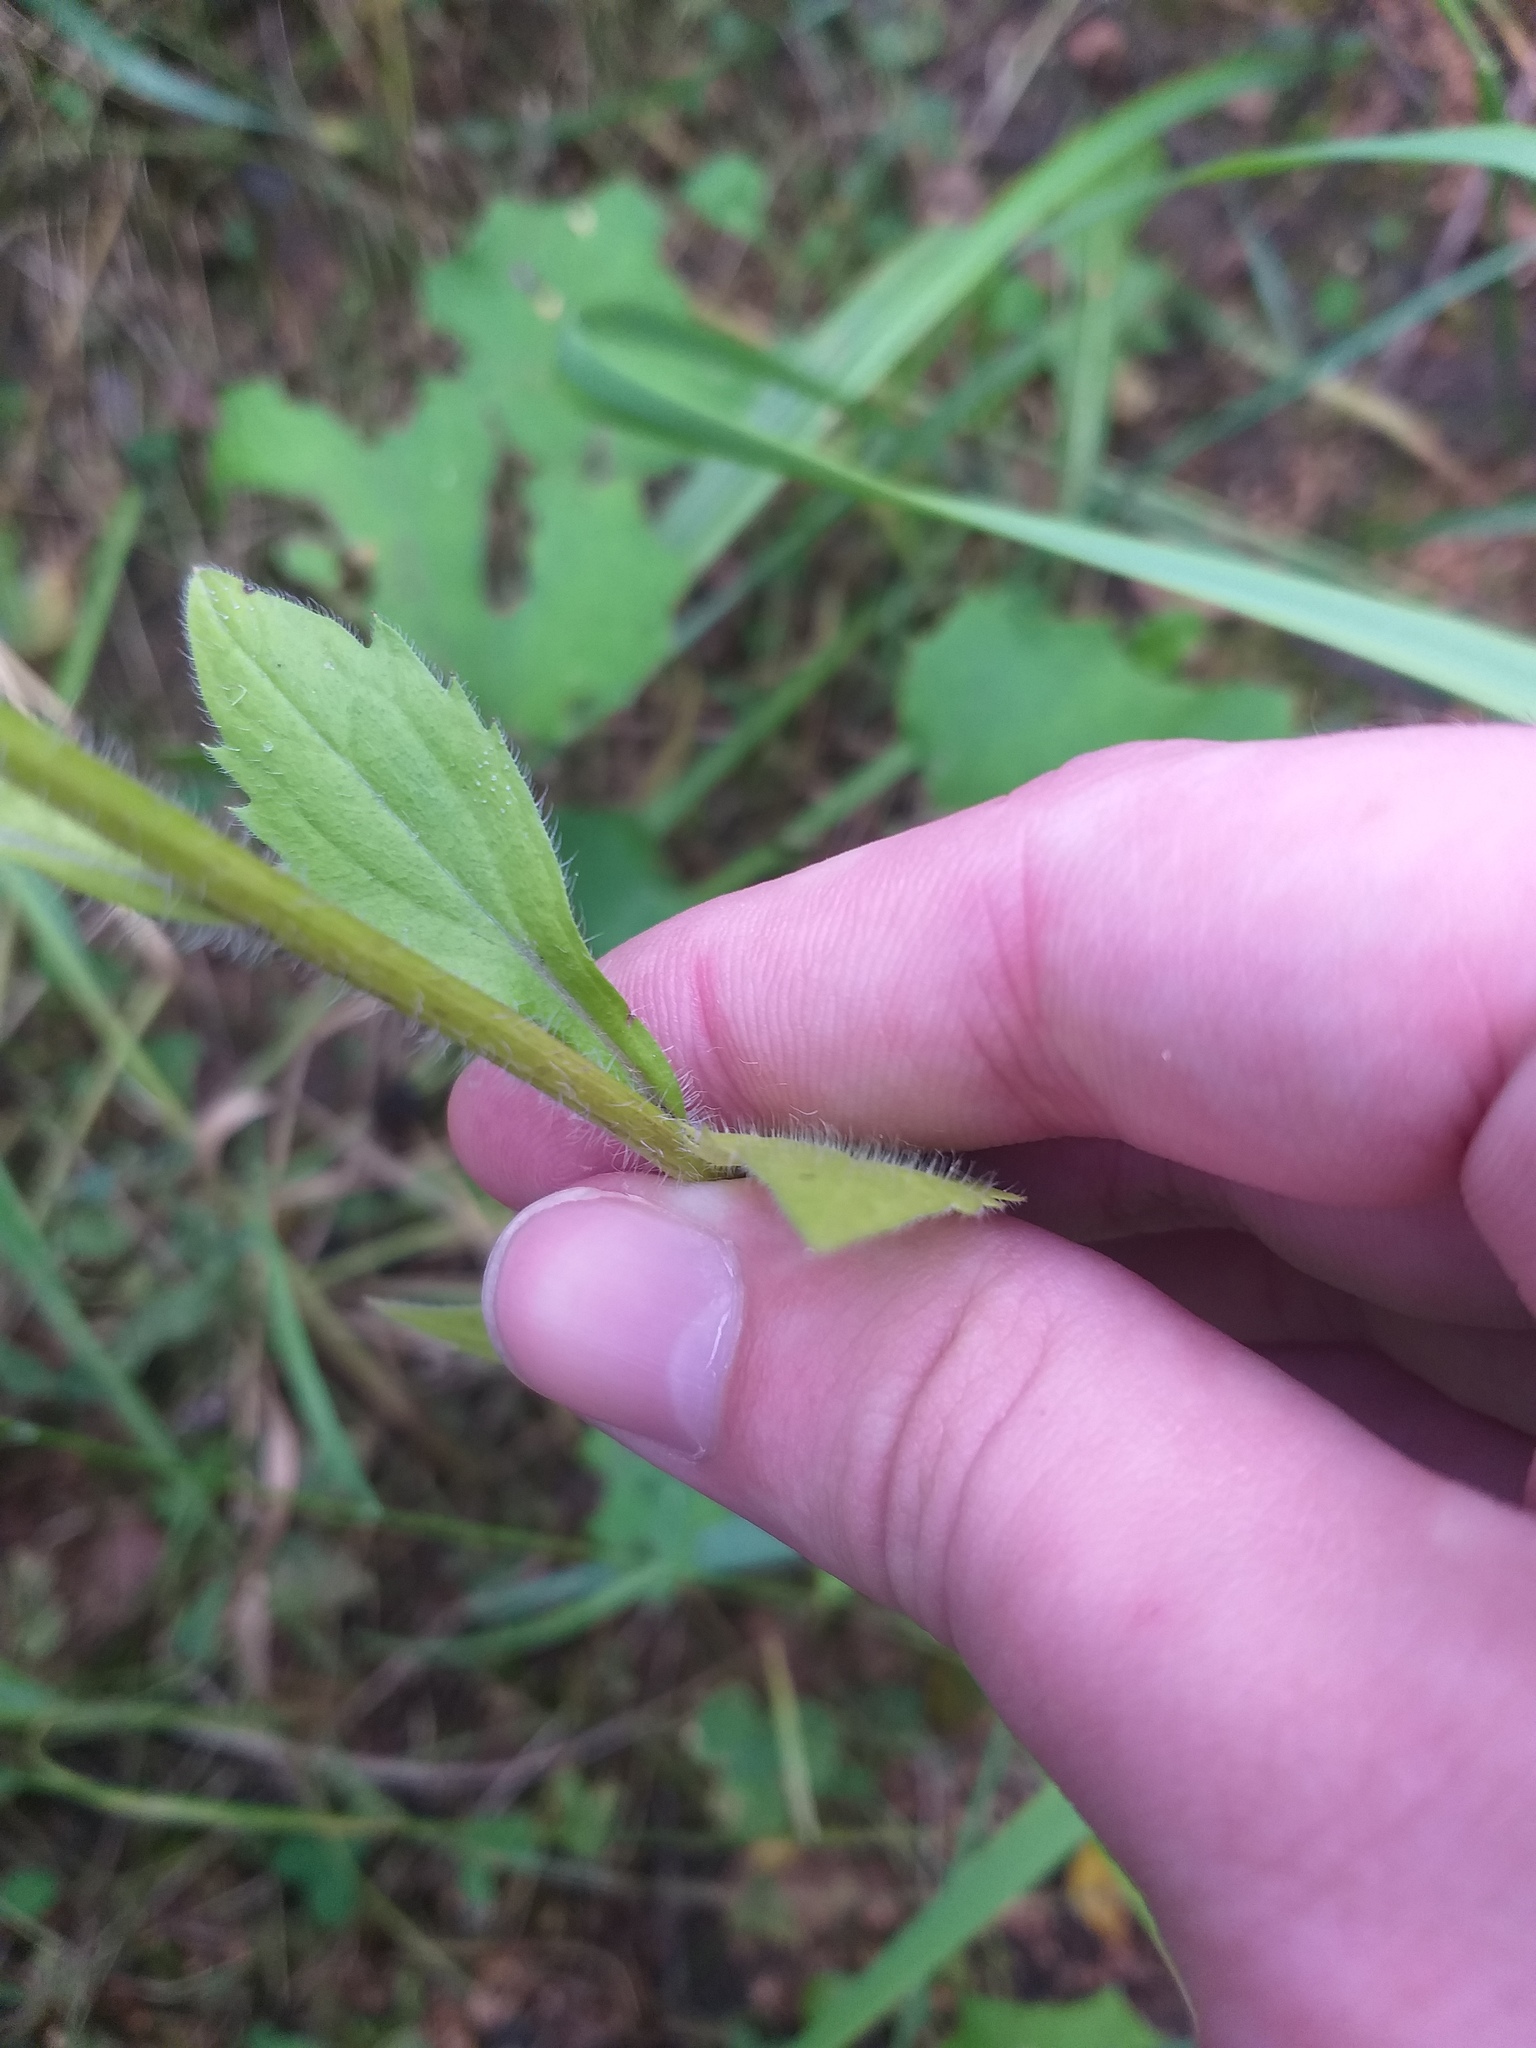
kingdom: Plantae
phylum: Tracheophyta
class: Magnoliopsida
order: Asterales
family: Asteraceae
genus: Erigeron
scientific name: Erigeron annuus
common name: Tall fleabane
